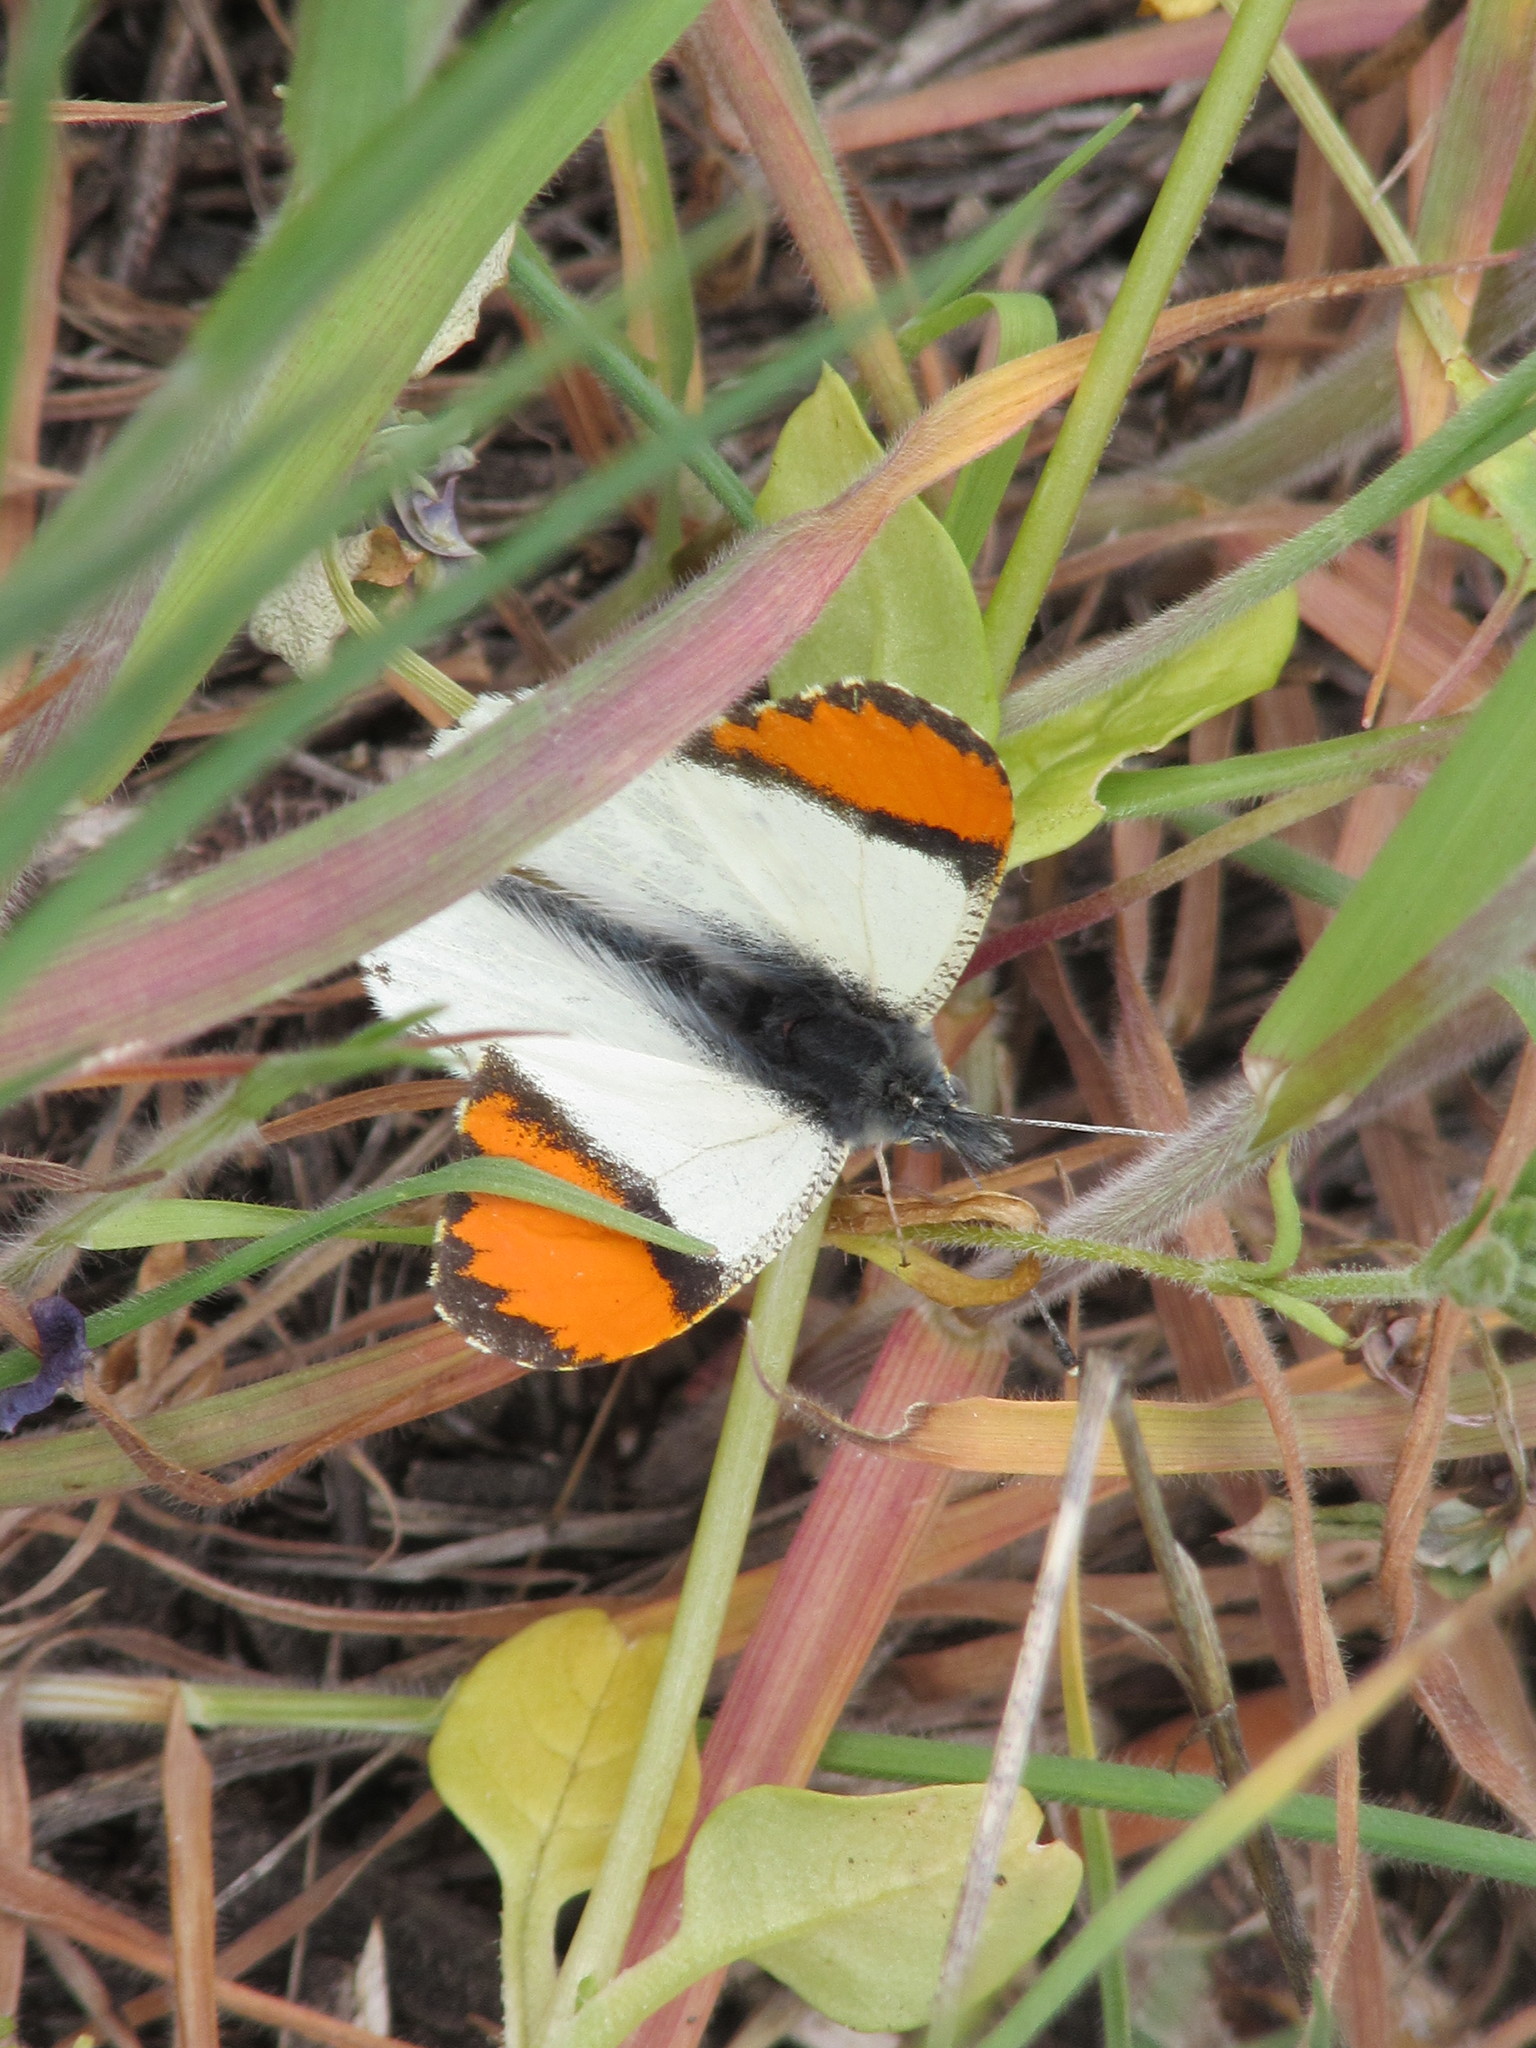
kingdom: Animalia
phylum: Arthropoda
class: Insecta
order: Lepidoptera
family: Pieridae
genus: Anthocharis
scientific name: Anthocharis sara
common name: Sara's orangetip
